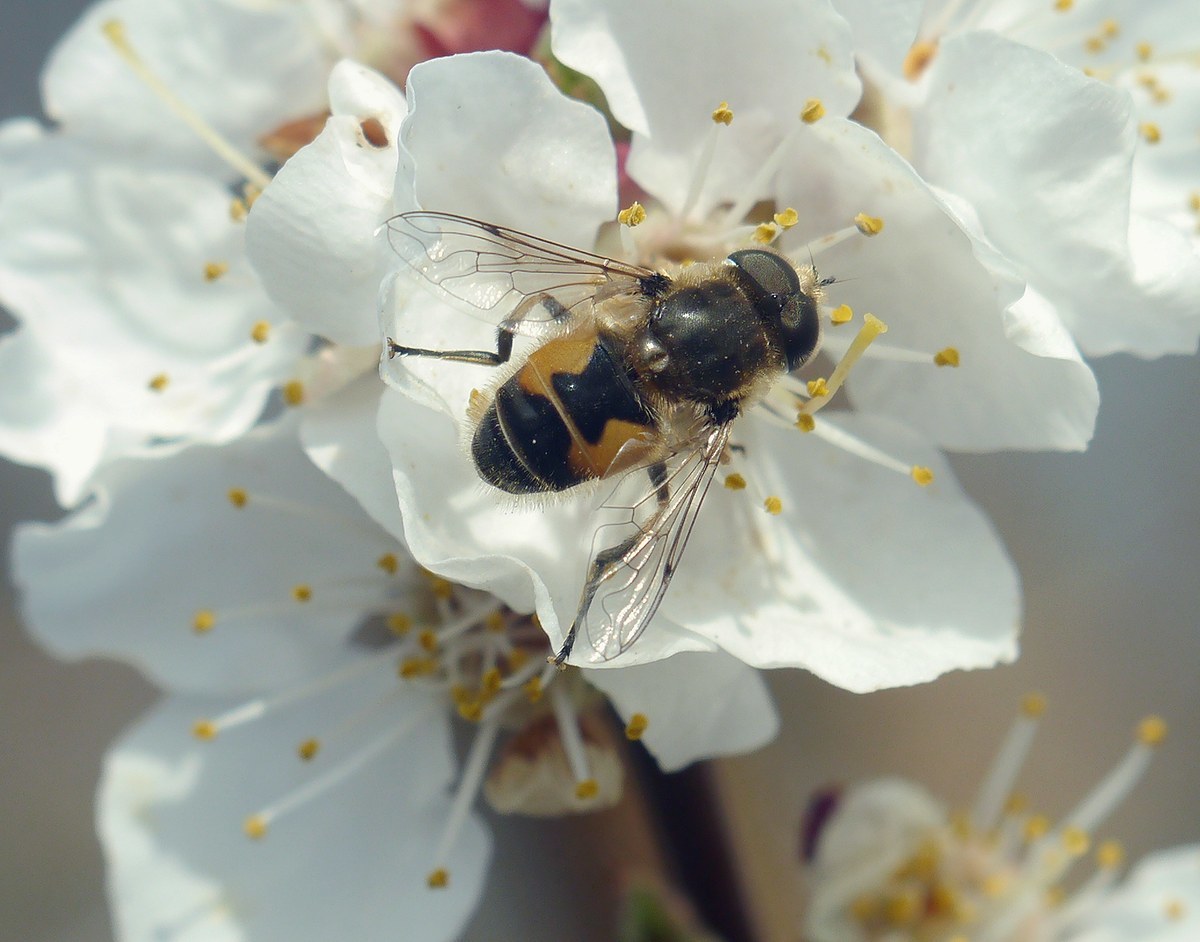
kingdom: Animalia
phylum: Arthropoda
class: Insecta
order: Diptera
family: Syrphidae
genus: Eristalis
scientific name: Eristalis arbustorum
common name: Hover fly
